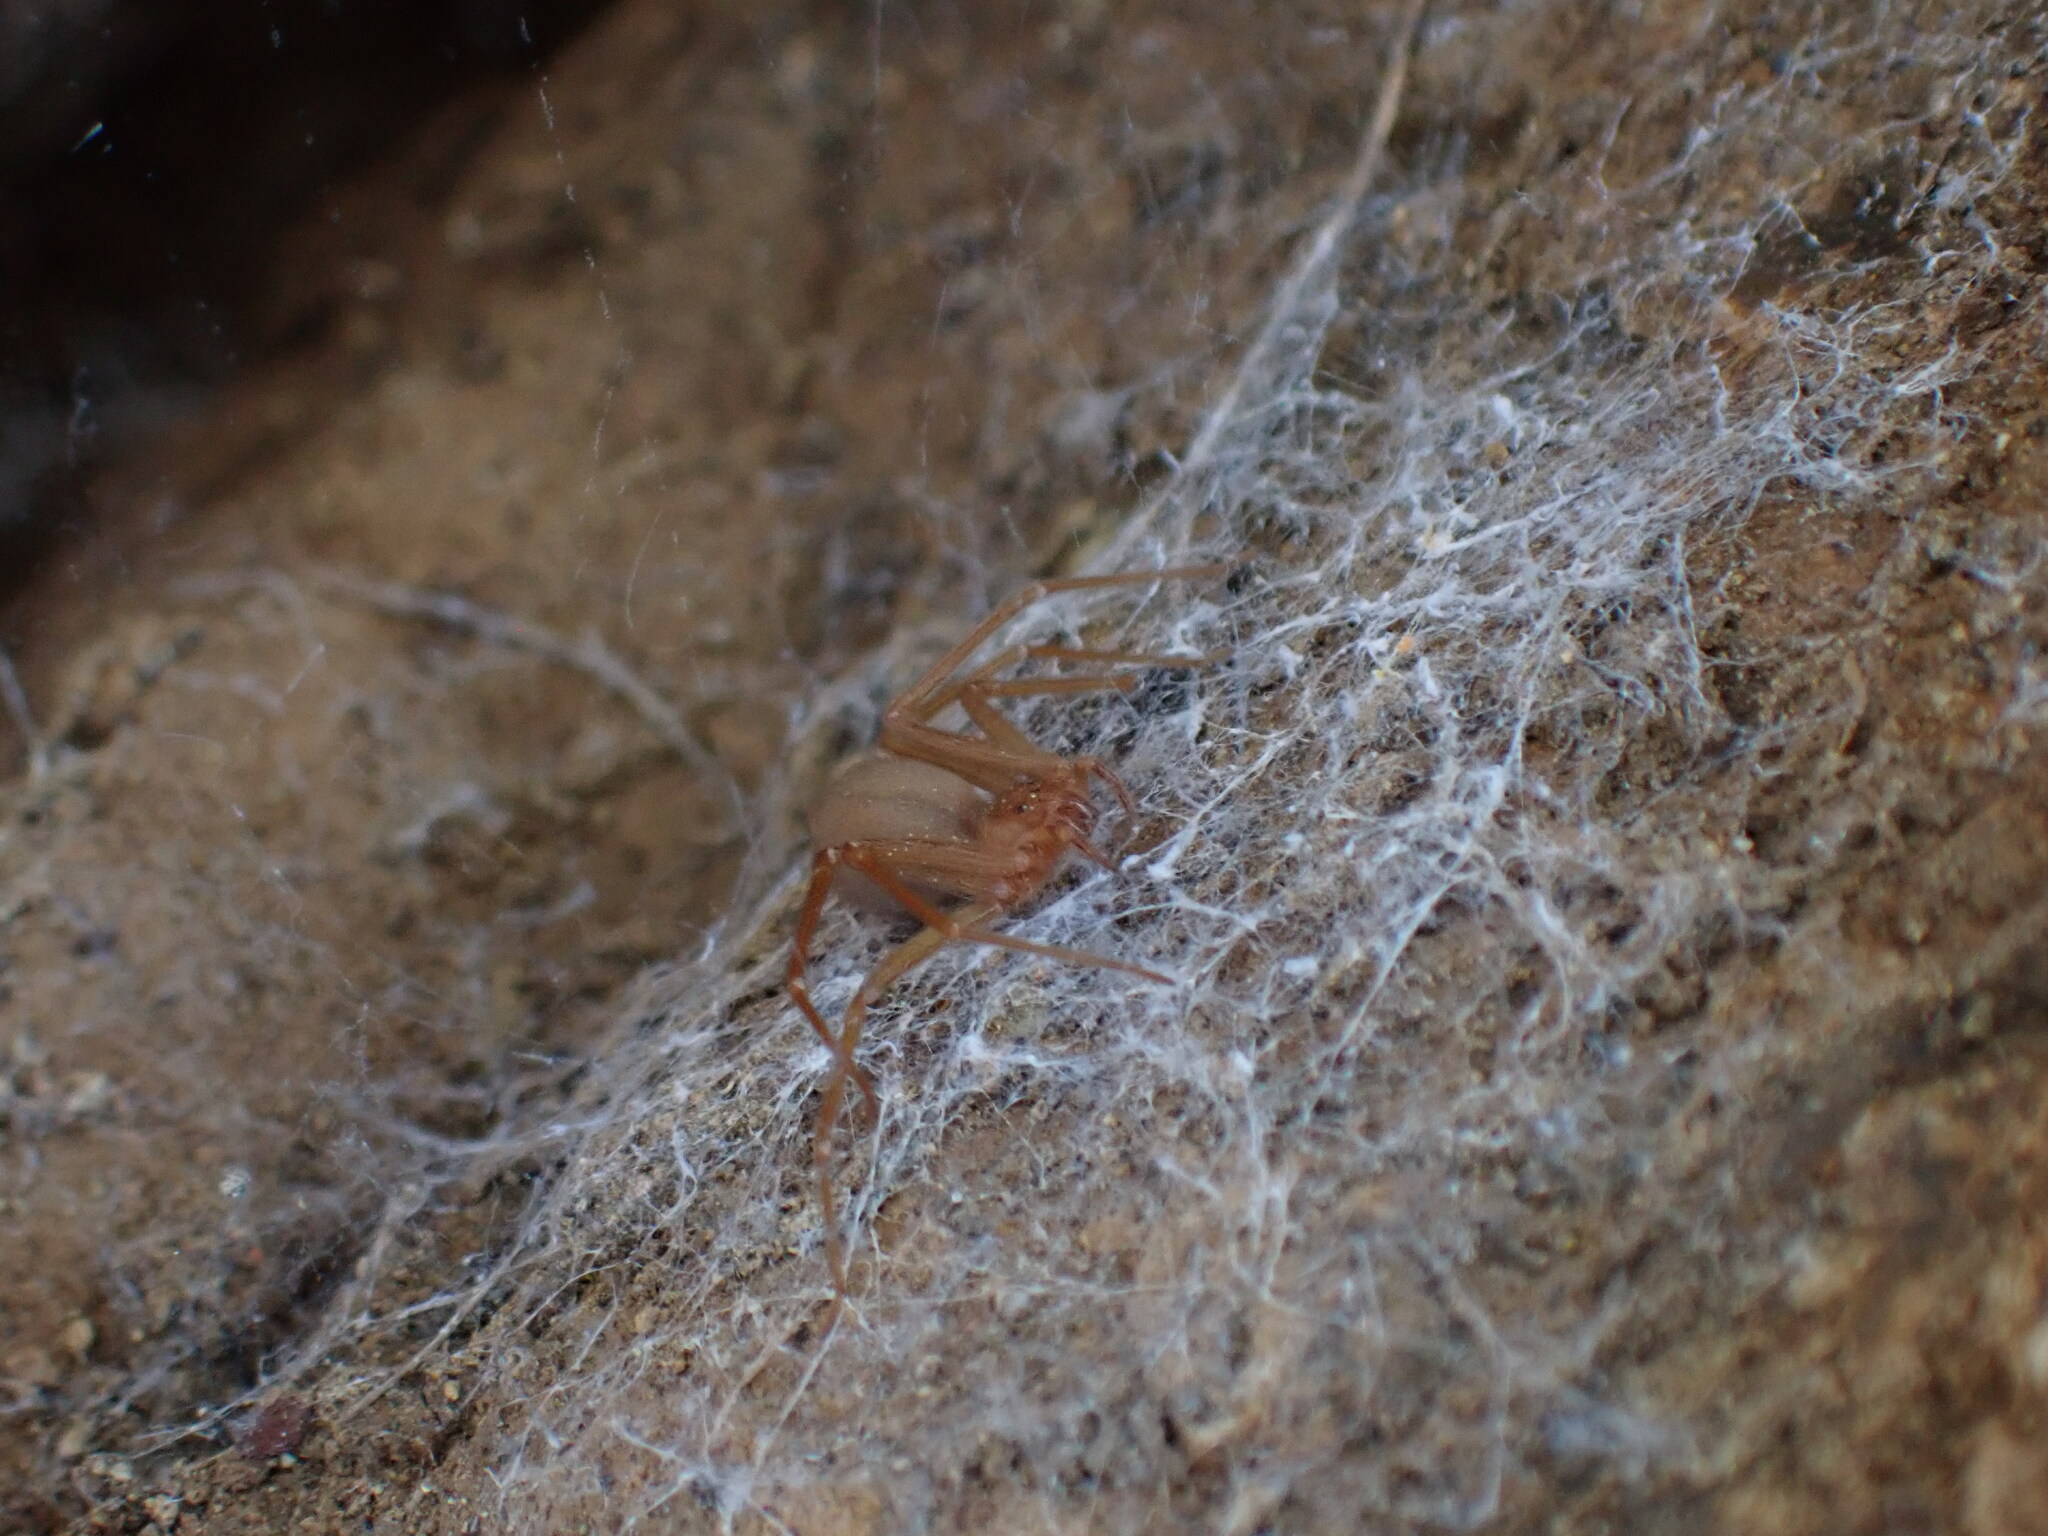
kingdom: Animalia
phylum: Arthropoda
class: Arachnida
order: Araneae
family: Sicariidae
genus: Loxosceles
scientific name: Loxosceles rufescens
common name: Mediterranean recluse spider
